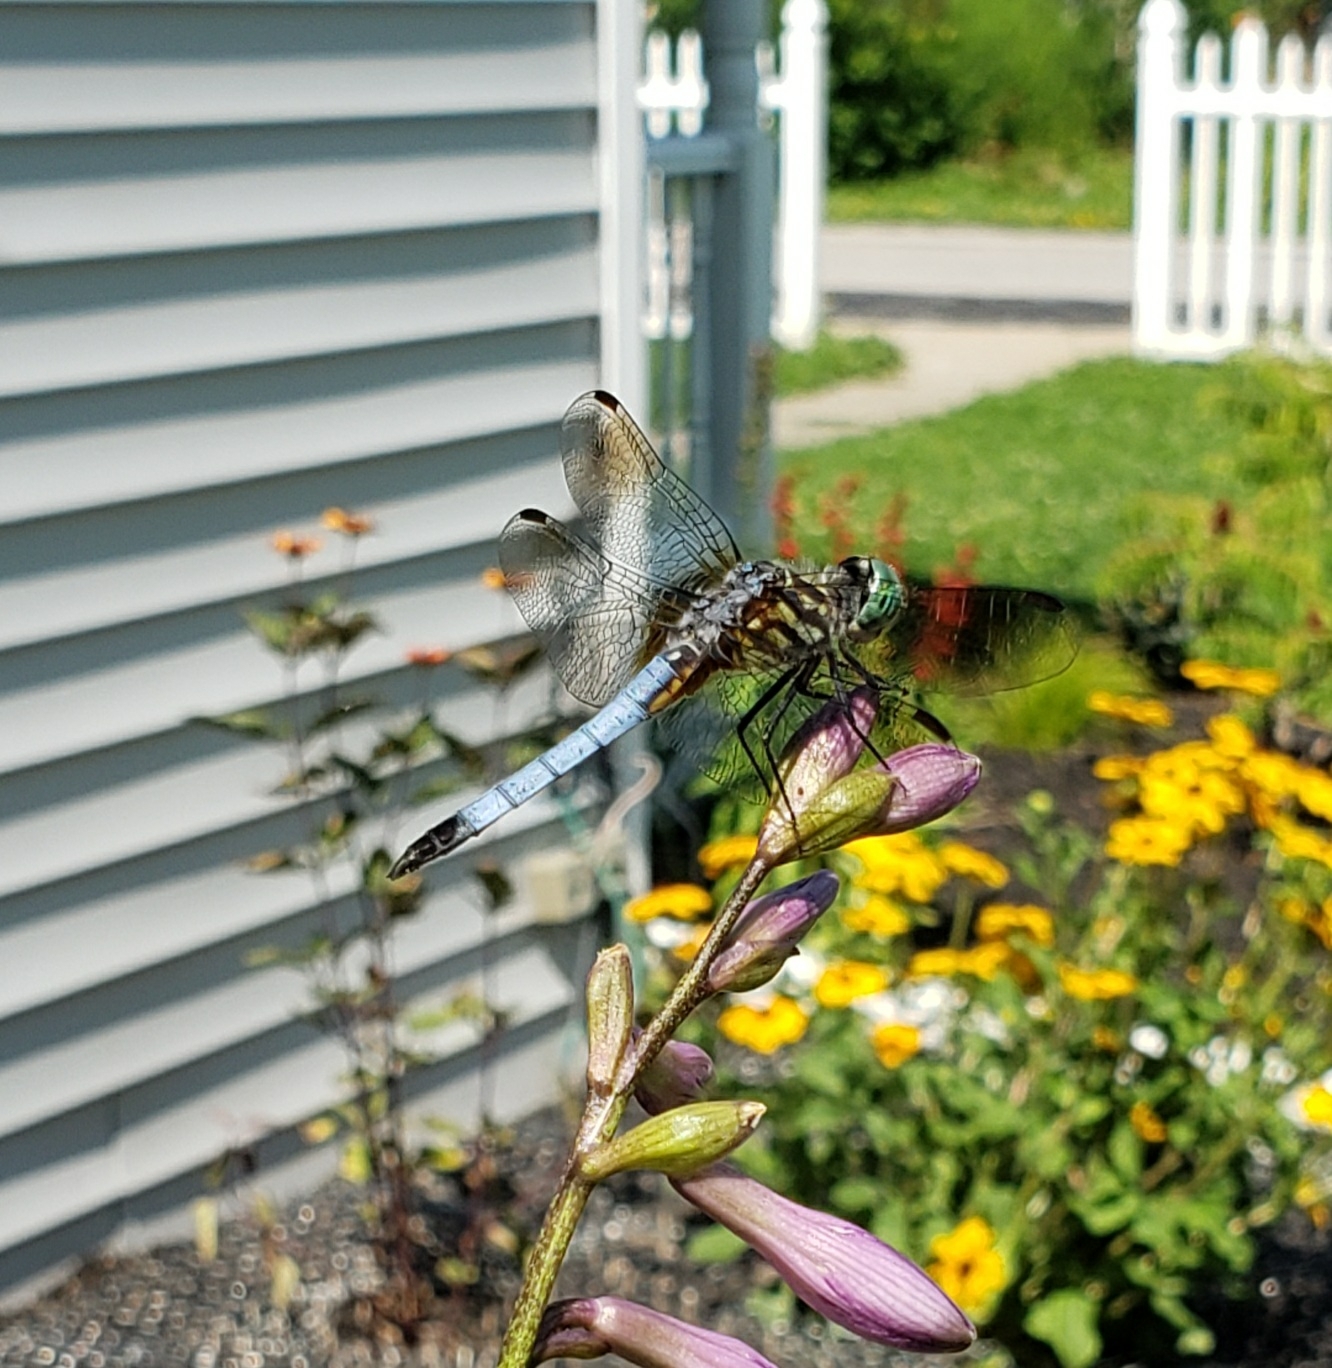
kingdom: Animalia
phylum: Arthropoda
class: Insecta
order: Odonata
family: Libellulidae
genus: Pachydiplax
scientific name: Pachydiplax longipennis
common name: Blue dasher
